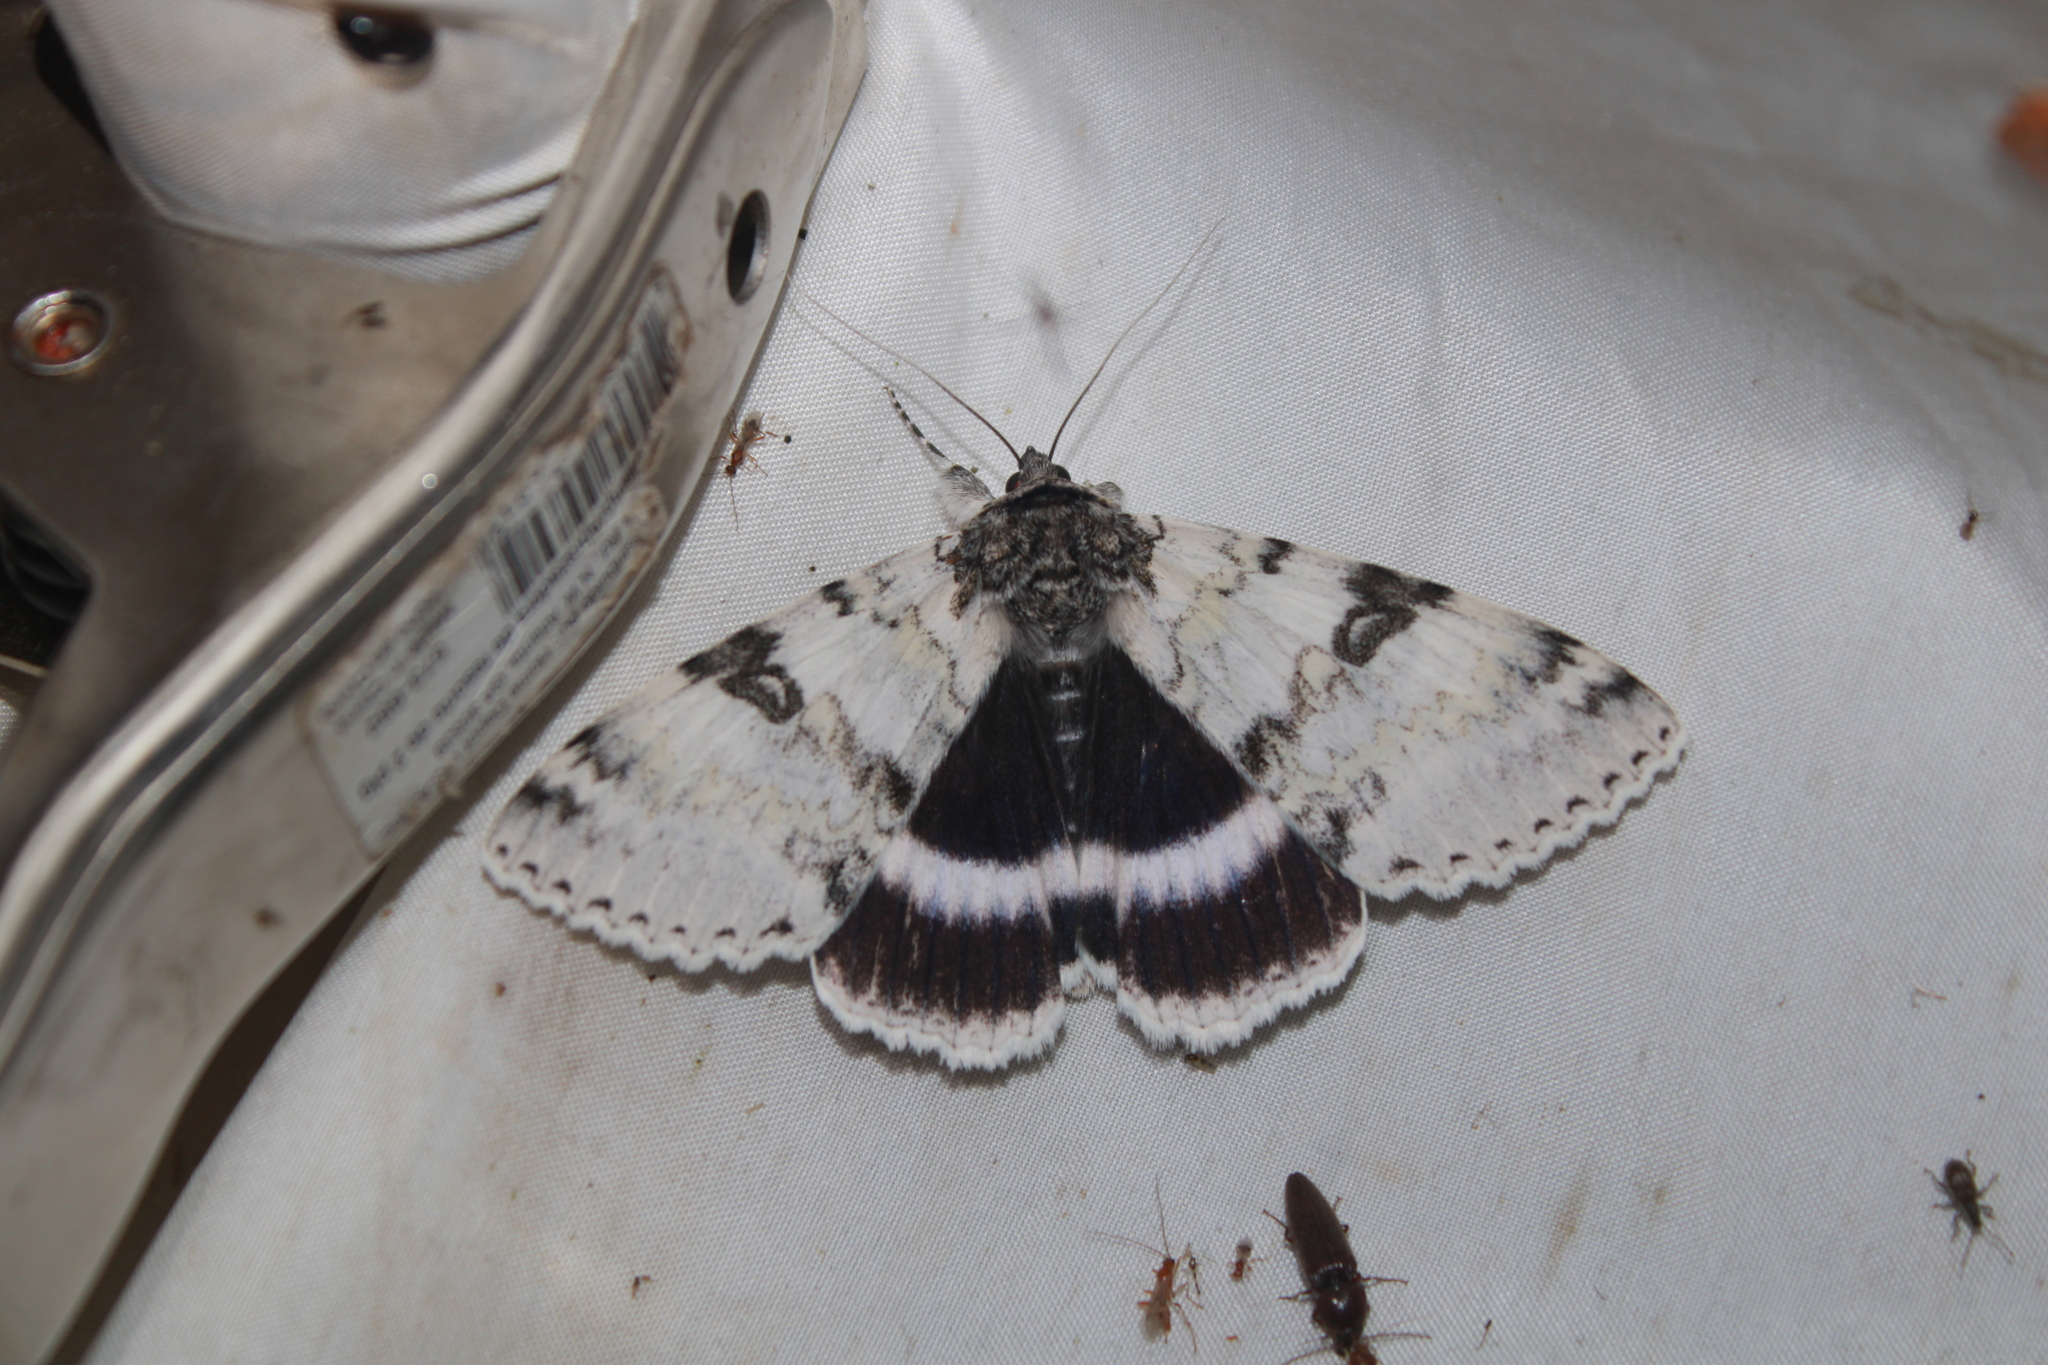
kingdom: Animalia
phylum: Arthropoda
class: Insecta
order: Lepidoptera
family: Erebidae
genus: Catocala
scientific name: Catocala relicta
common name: White underwing
